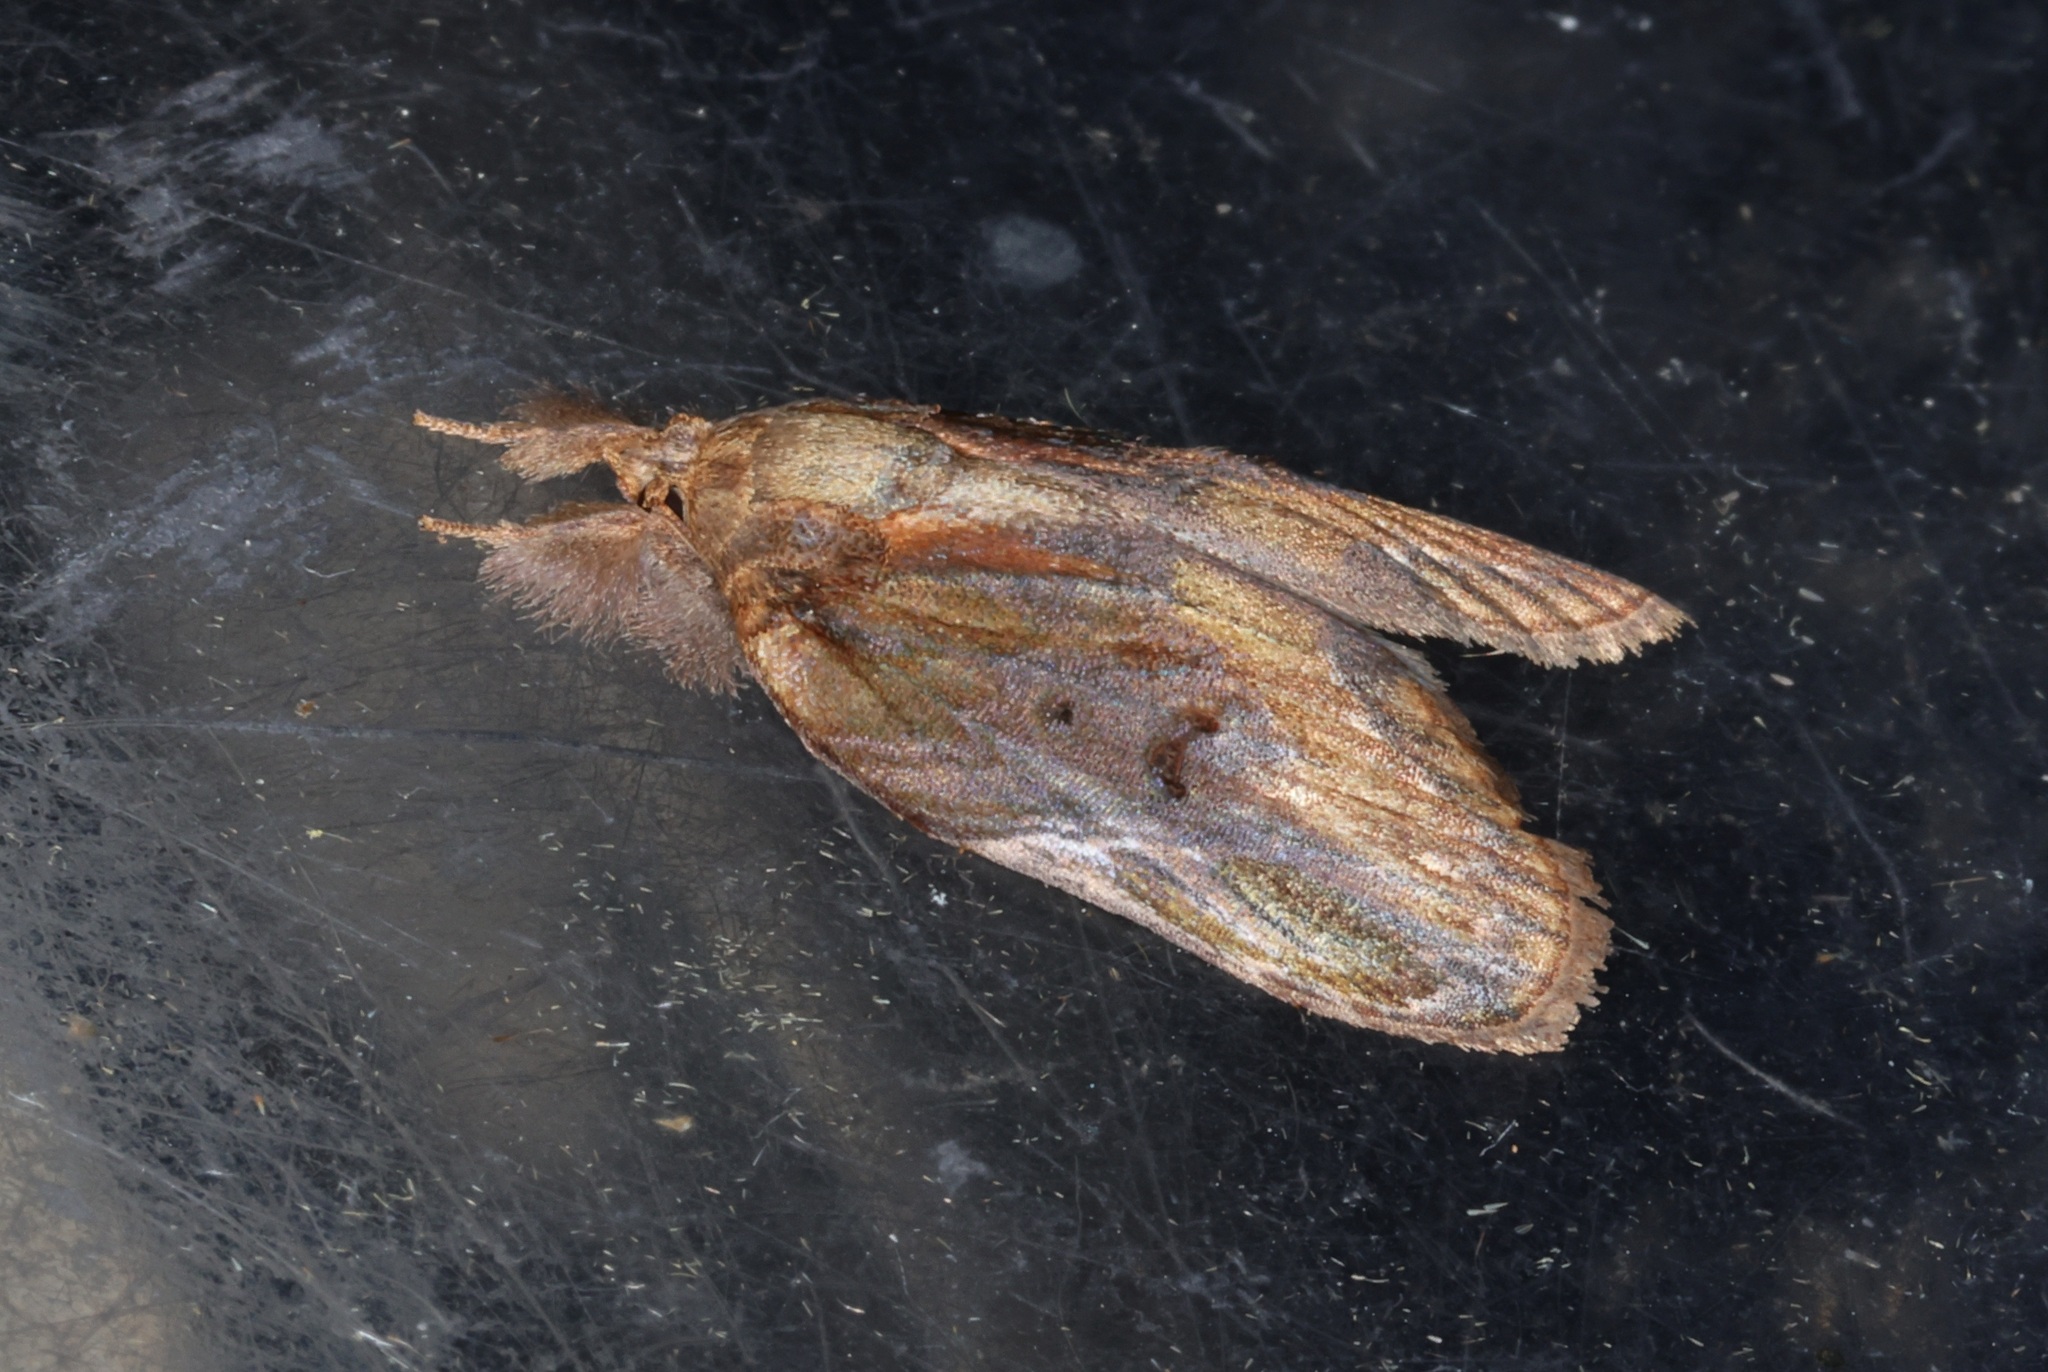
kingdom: Animalia
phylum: Arthropoda
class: Insecta
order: Lepidoptera
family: Nolidae
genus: Lamprothripa
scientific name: Lamprothripa scotia
